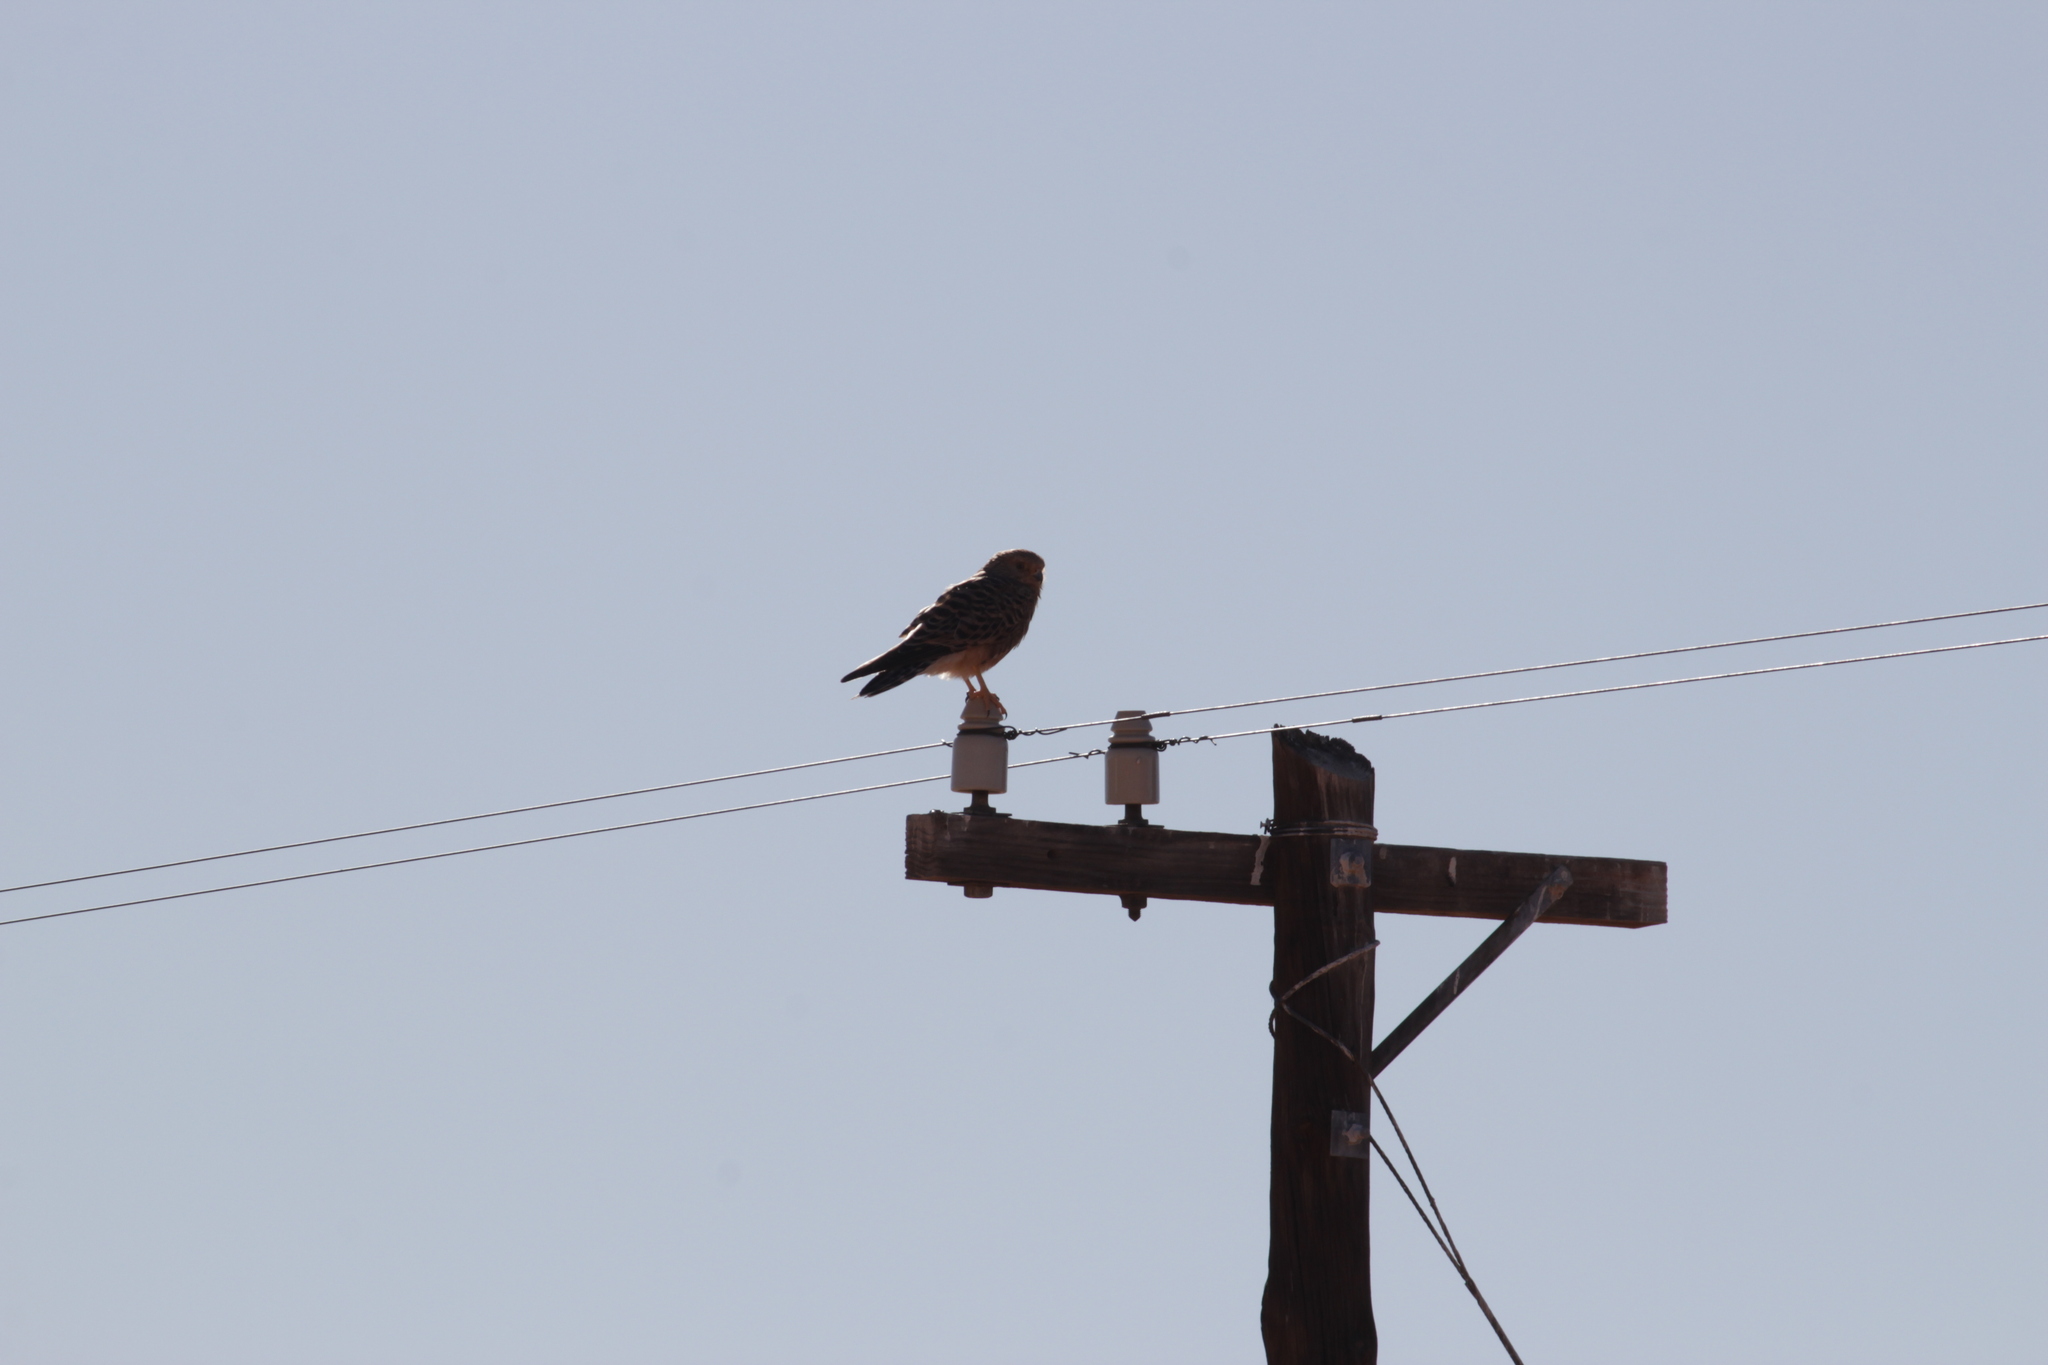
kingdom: Animalia
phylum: Chordata
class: Aves
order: Falconiformes
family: Falconidae
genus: Falco
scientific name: Falco rupicoloides
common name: Greater kestrel
